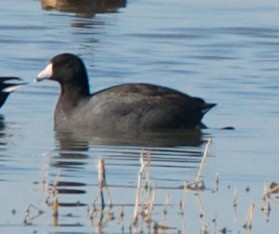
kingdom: Animalia
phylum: Chordata
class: Aves
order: Gruiformes
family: Rallidae
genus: Fulica
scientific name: Fulica americana
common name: American coot
